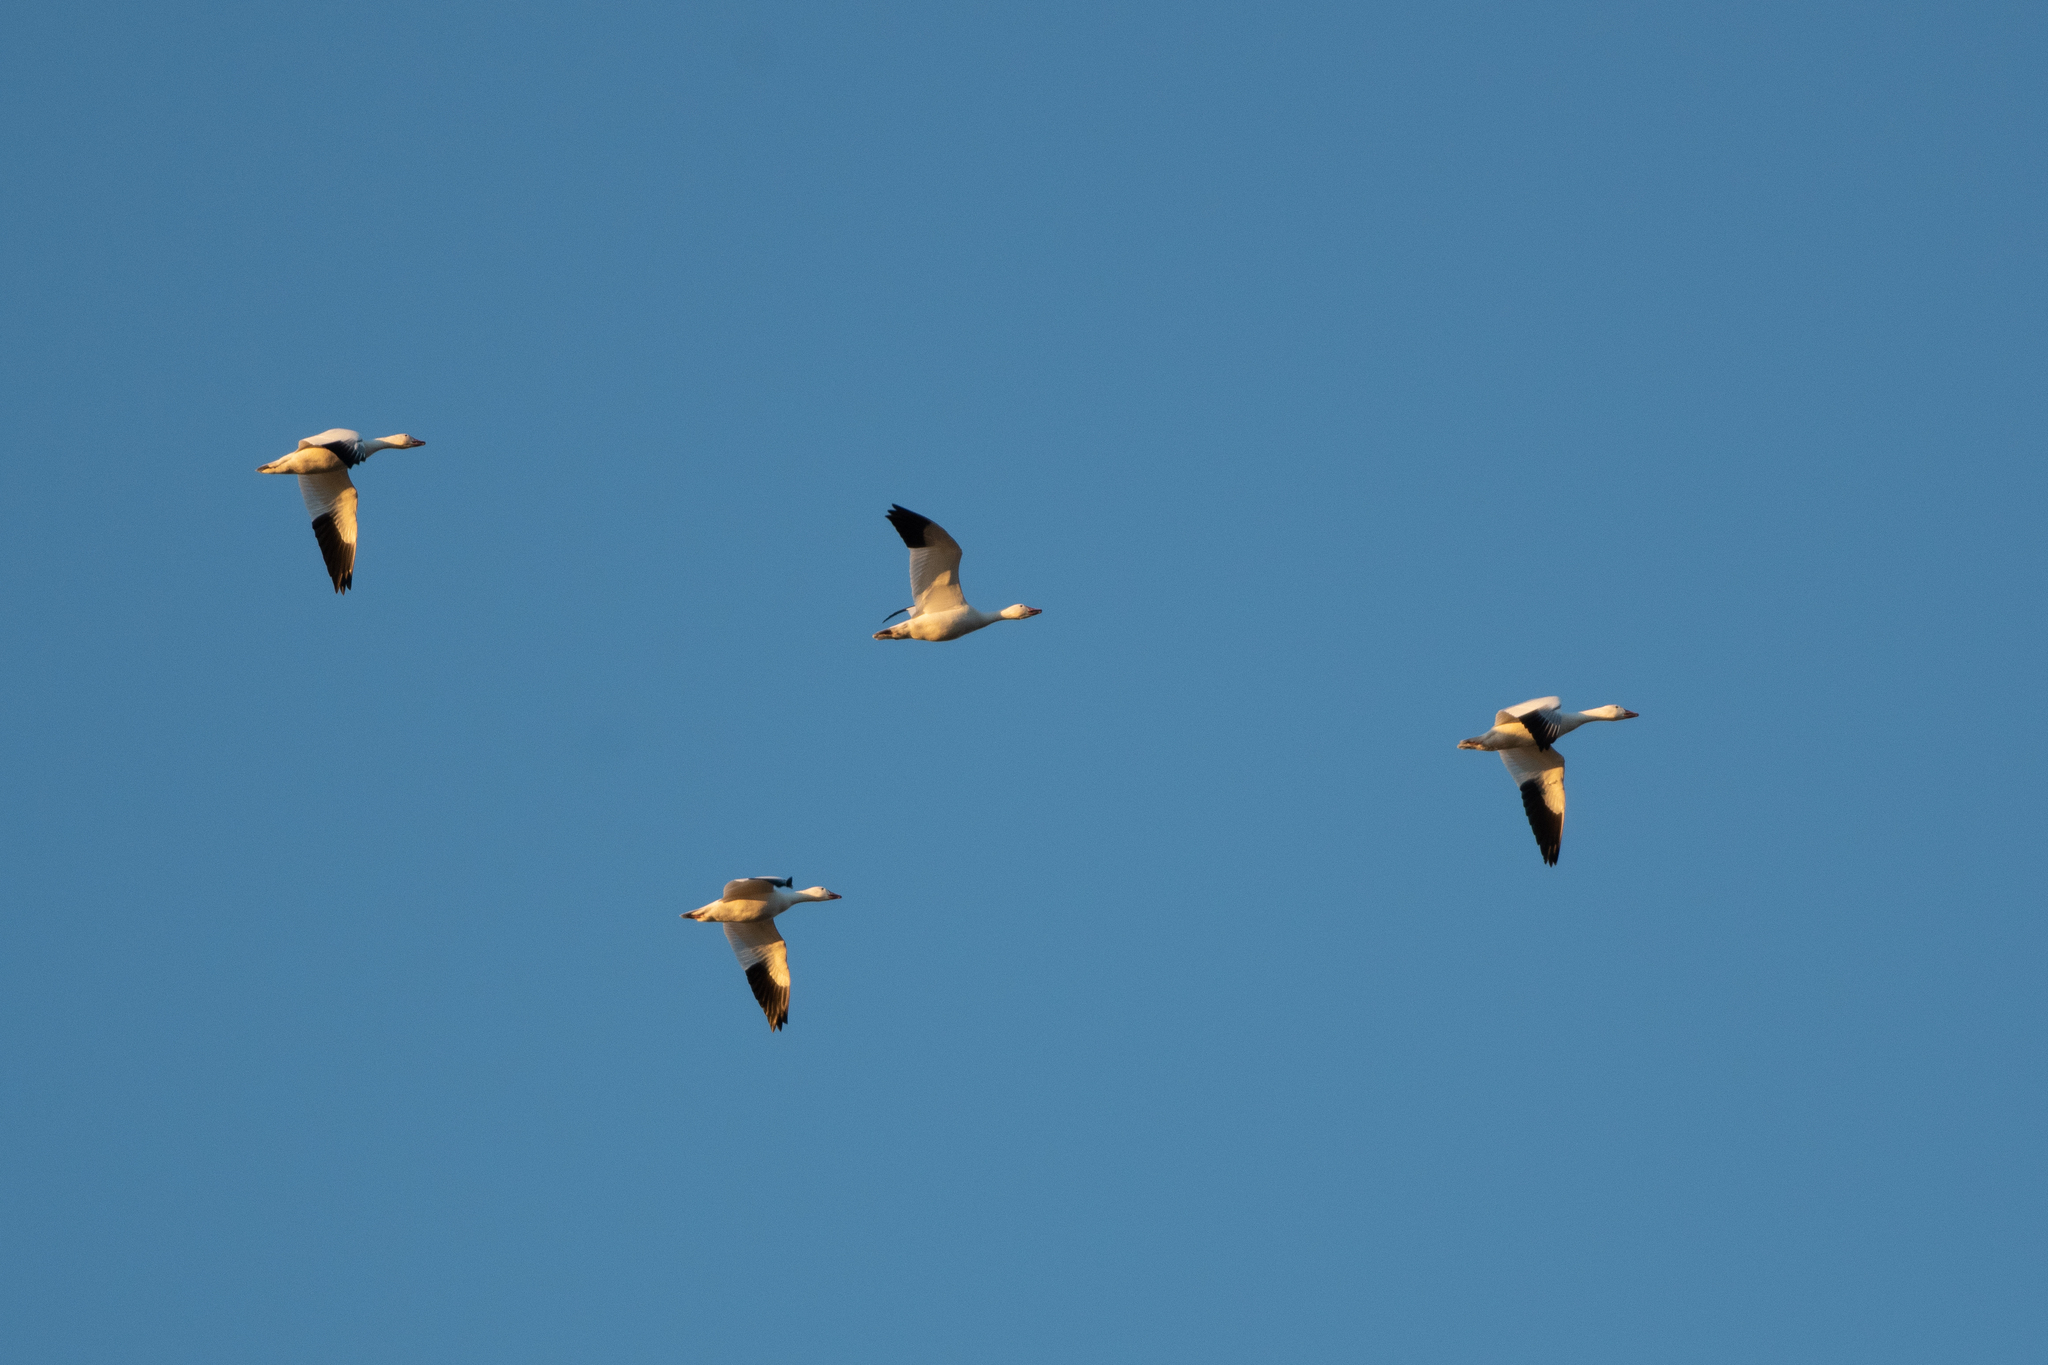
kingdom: Animalia
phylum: Chordata
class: Aves
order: Anseriformes
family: Anatidae
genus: Anser
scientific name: Anser caerulescens
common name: Snow goose
